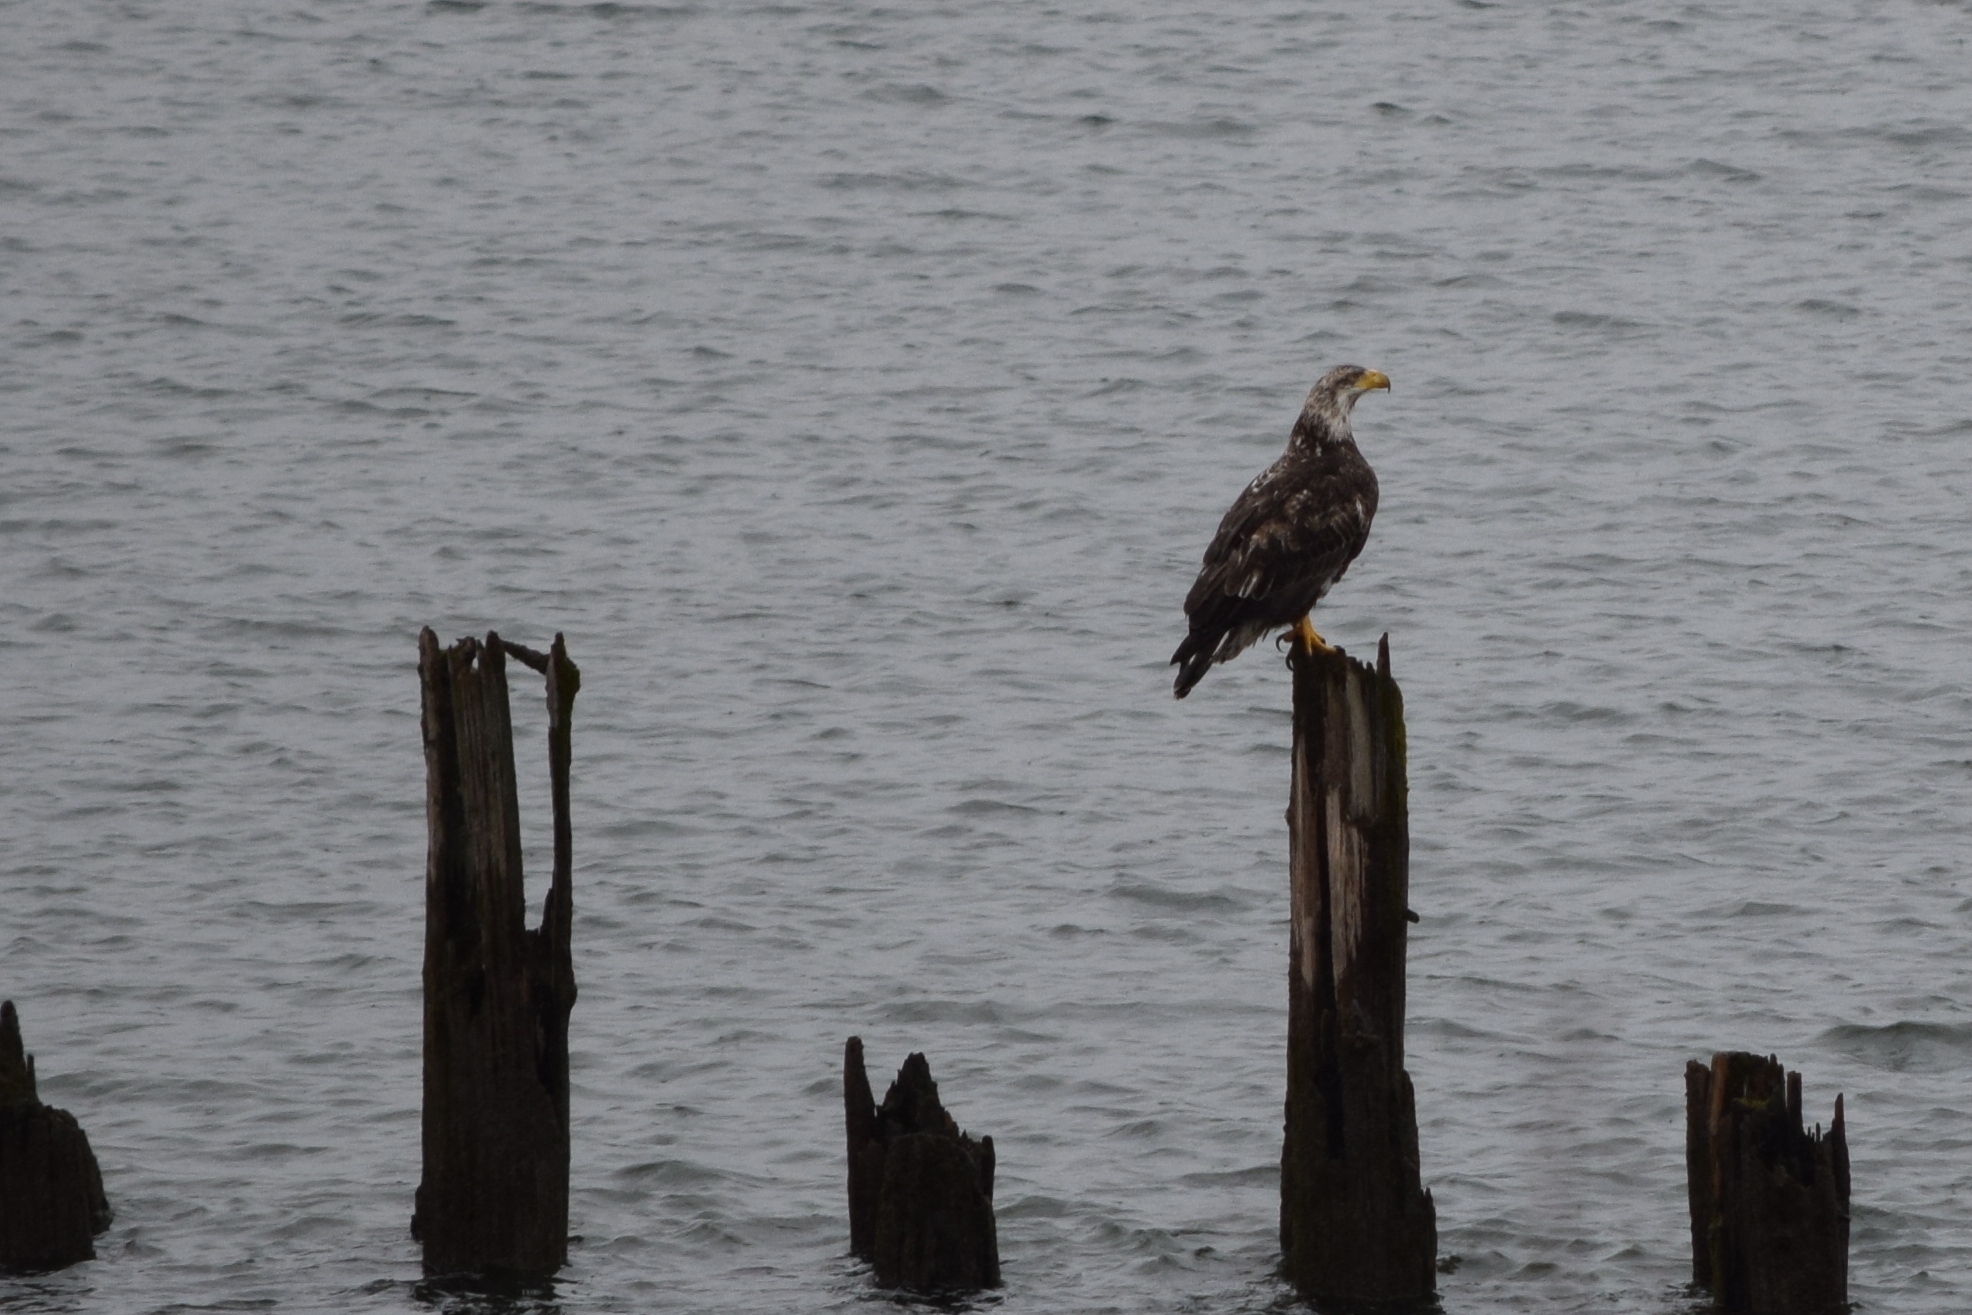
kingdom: Animalia
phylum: Chordata
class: Aves
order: Accipitriformes
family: Accipitridae
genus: Haliaeetus
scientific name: Haliaeetus leucocephalus
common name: Bald eagle
